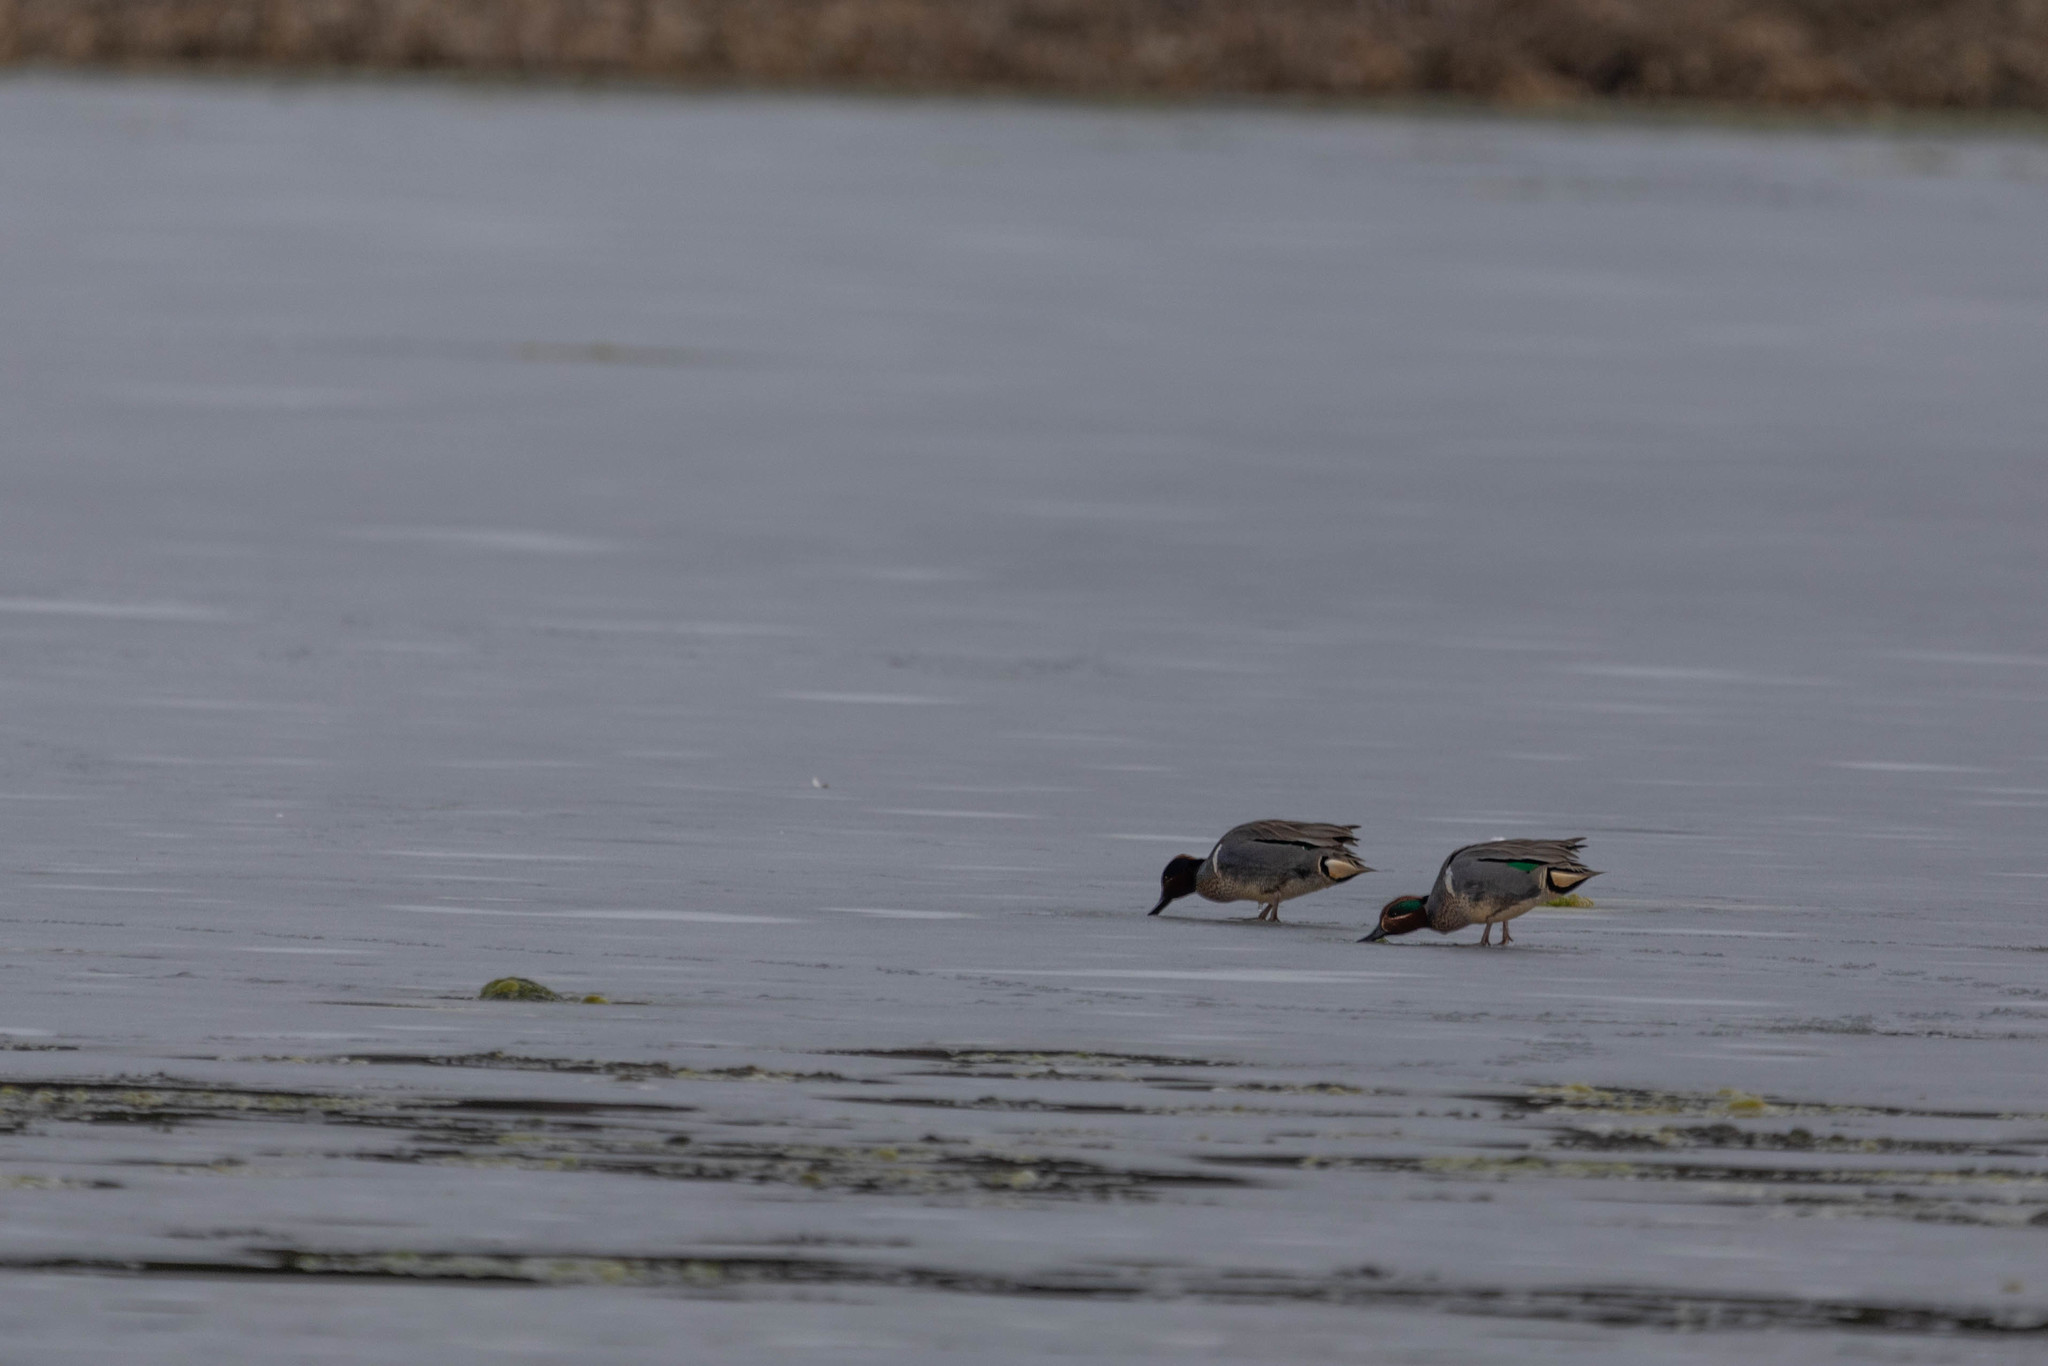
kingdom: Animalia
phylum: Chordata
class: Aves
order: Anseriformes
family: Anatidae
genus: Anas
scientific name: Anas crecca
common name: Eurasian teal
